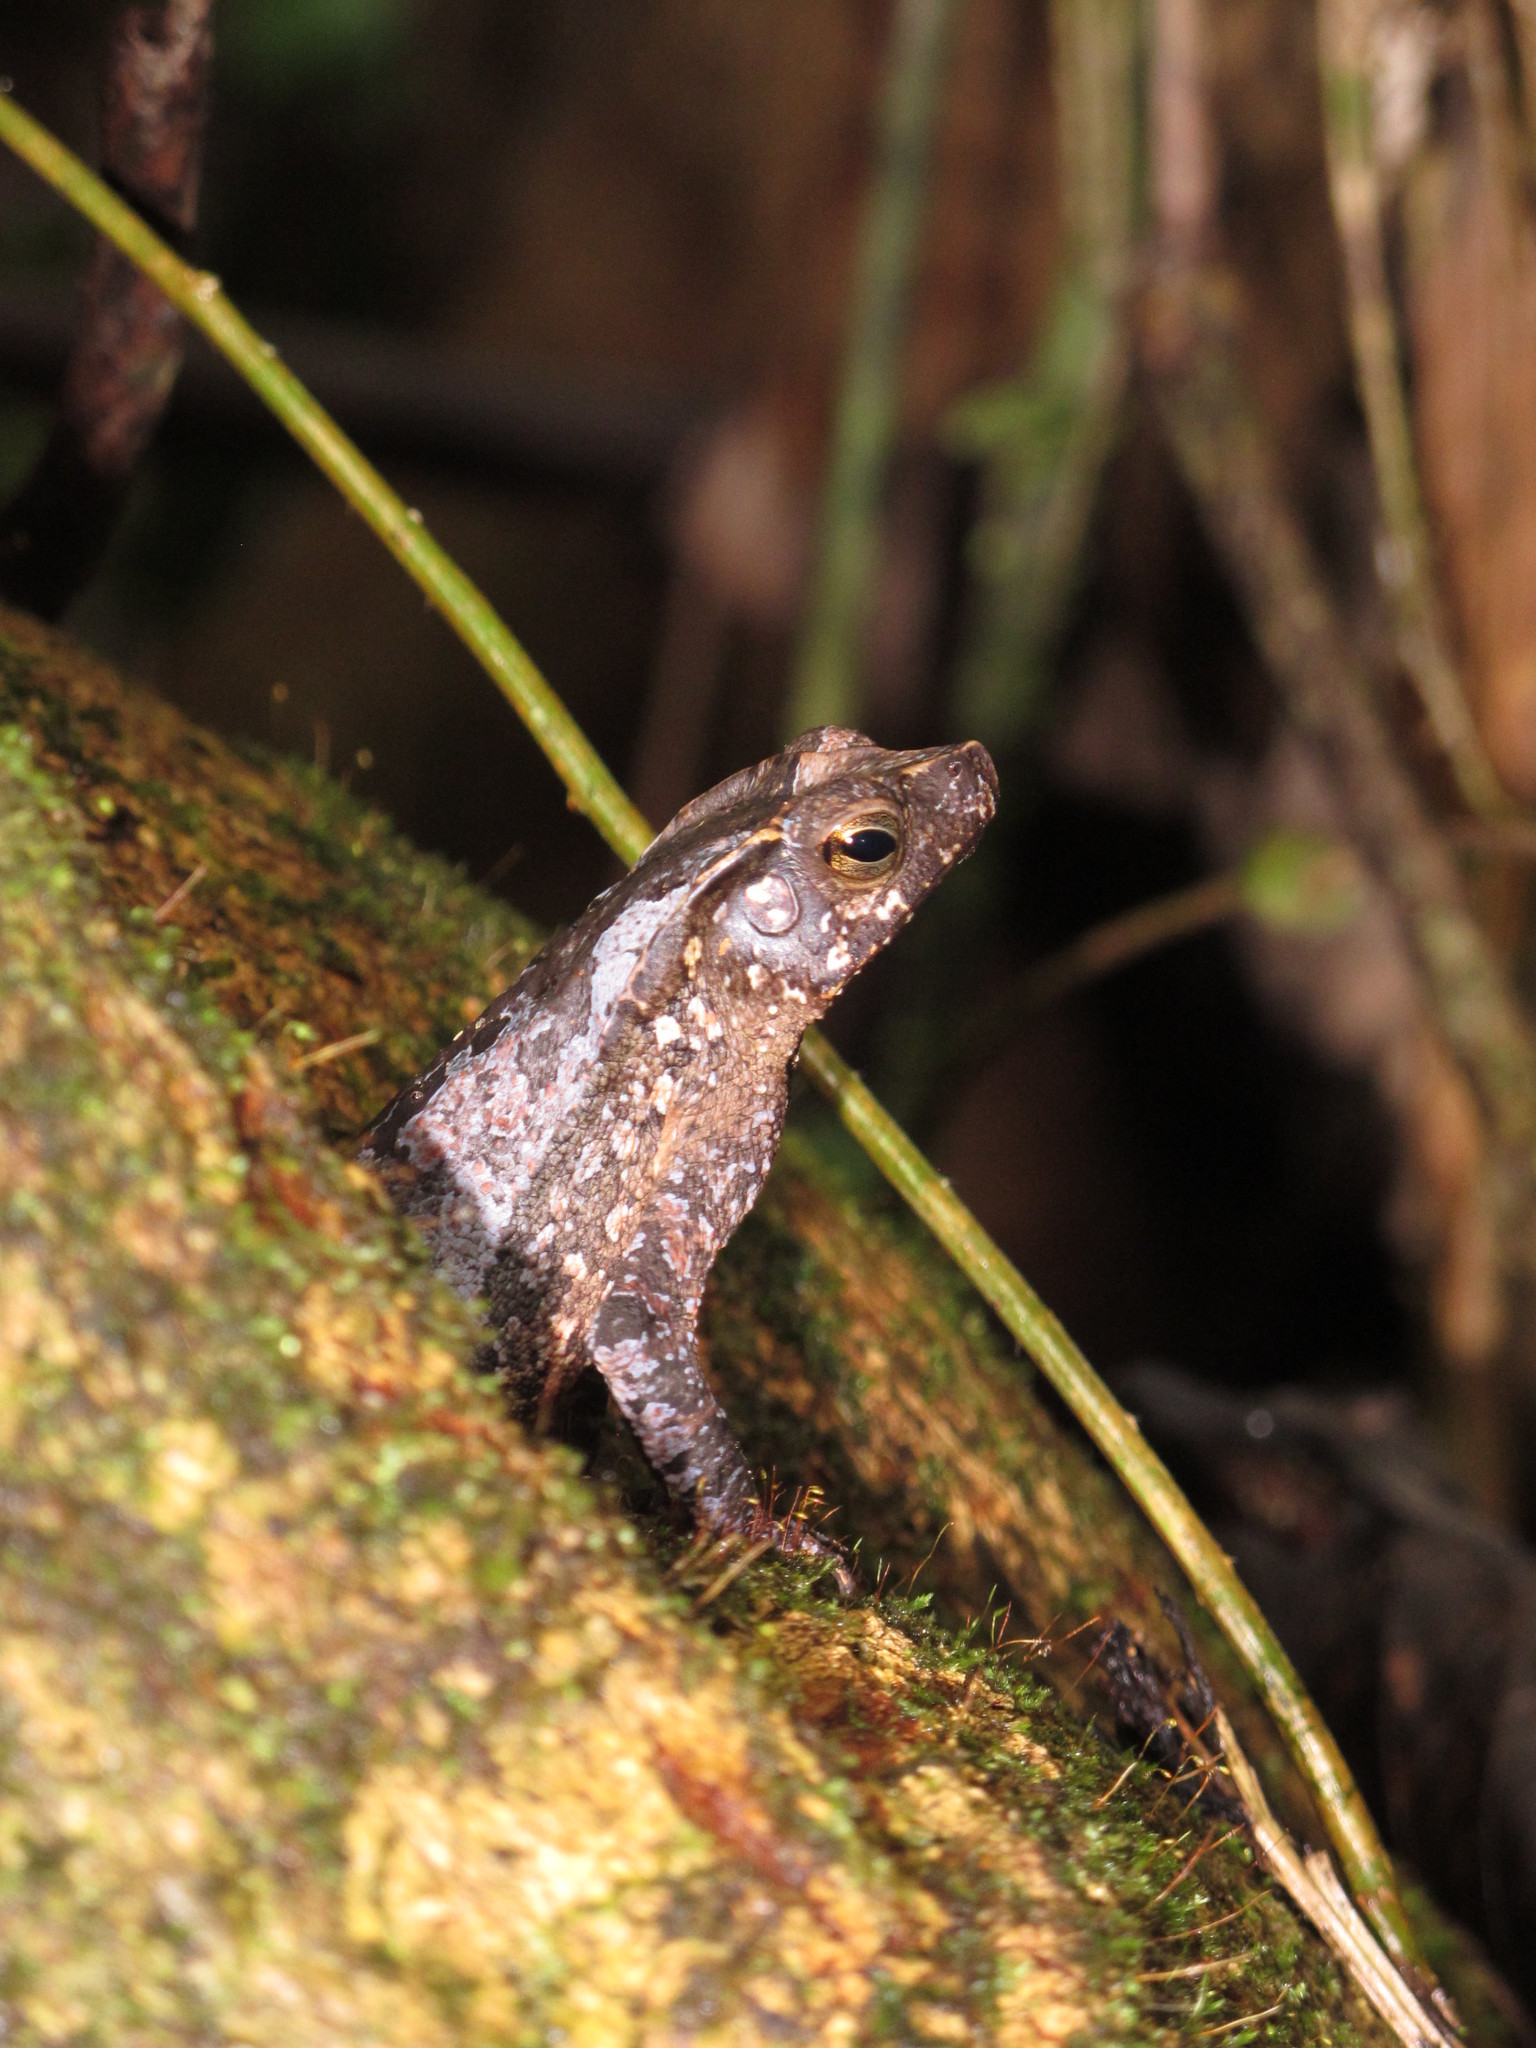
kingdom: Animalia
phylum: Chordata
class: Amphibia
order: Anura
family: Bufonidae
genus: Rhinella
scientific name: Rhinella margaritifera
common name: Mitred toad
